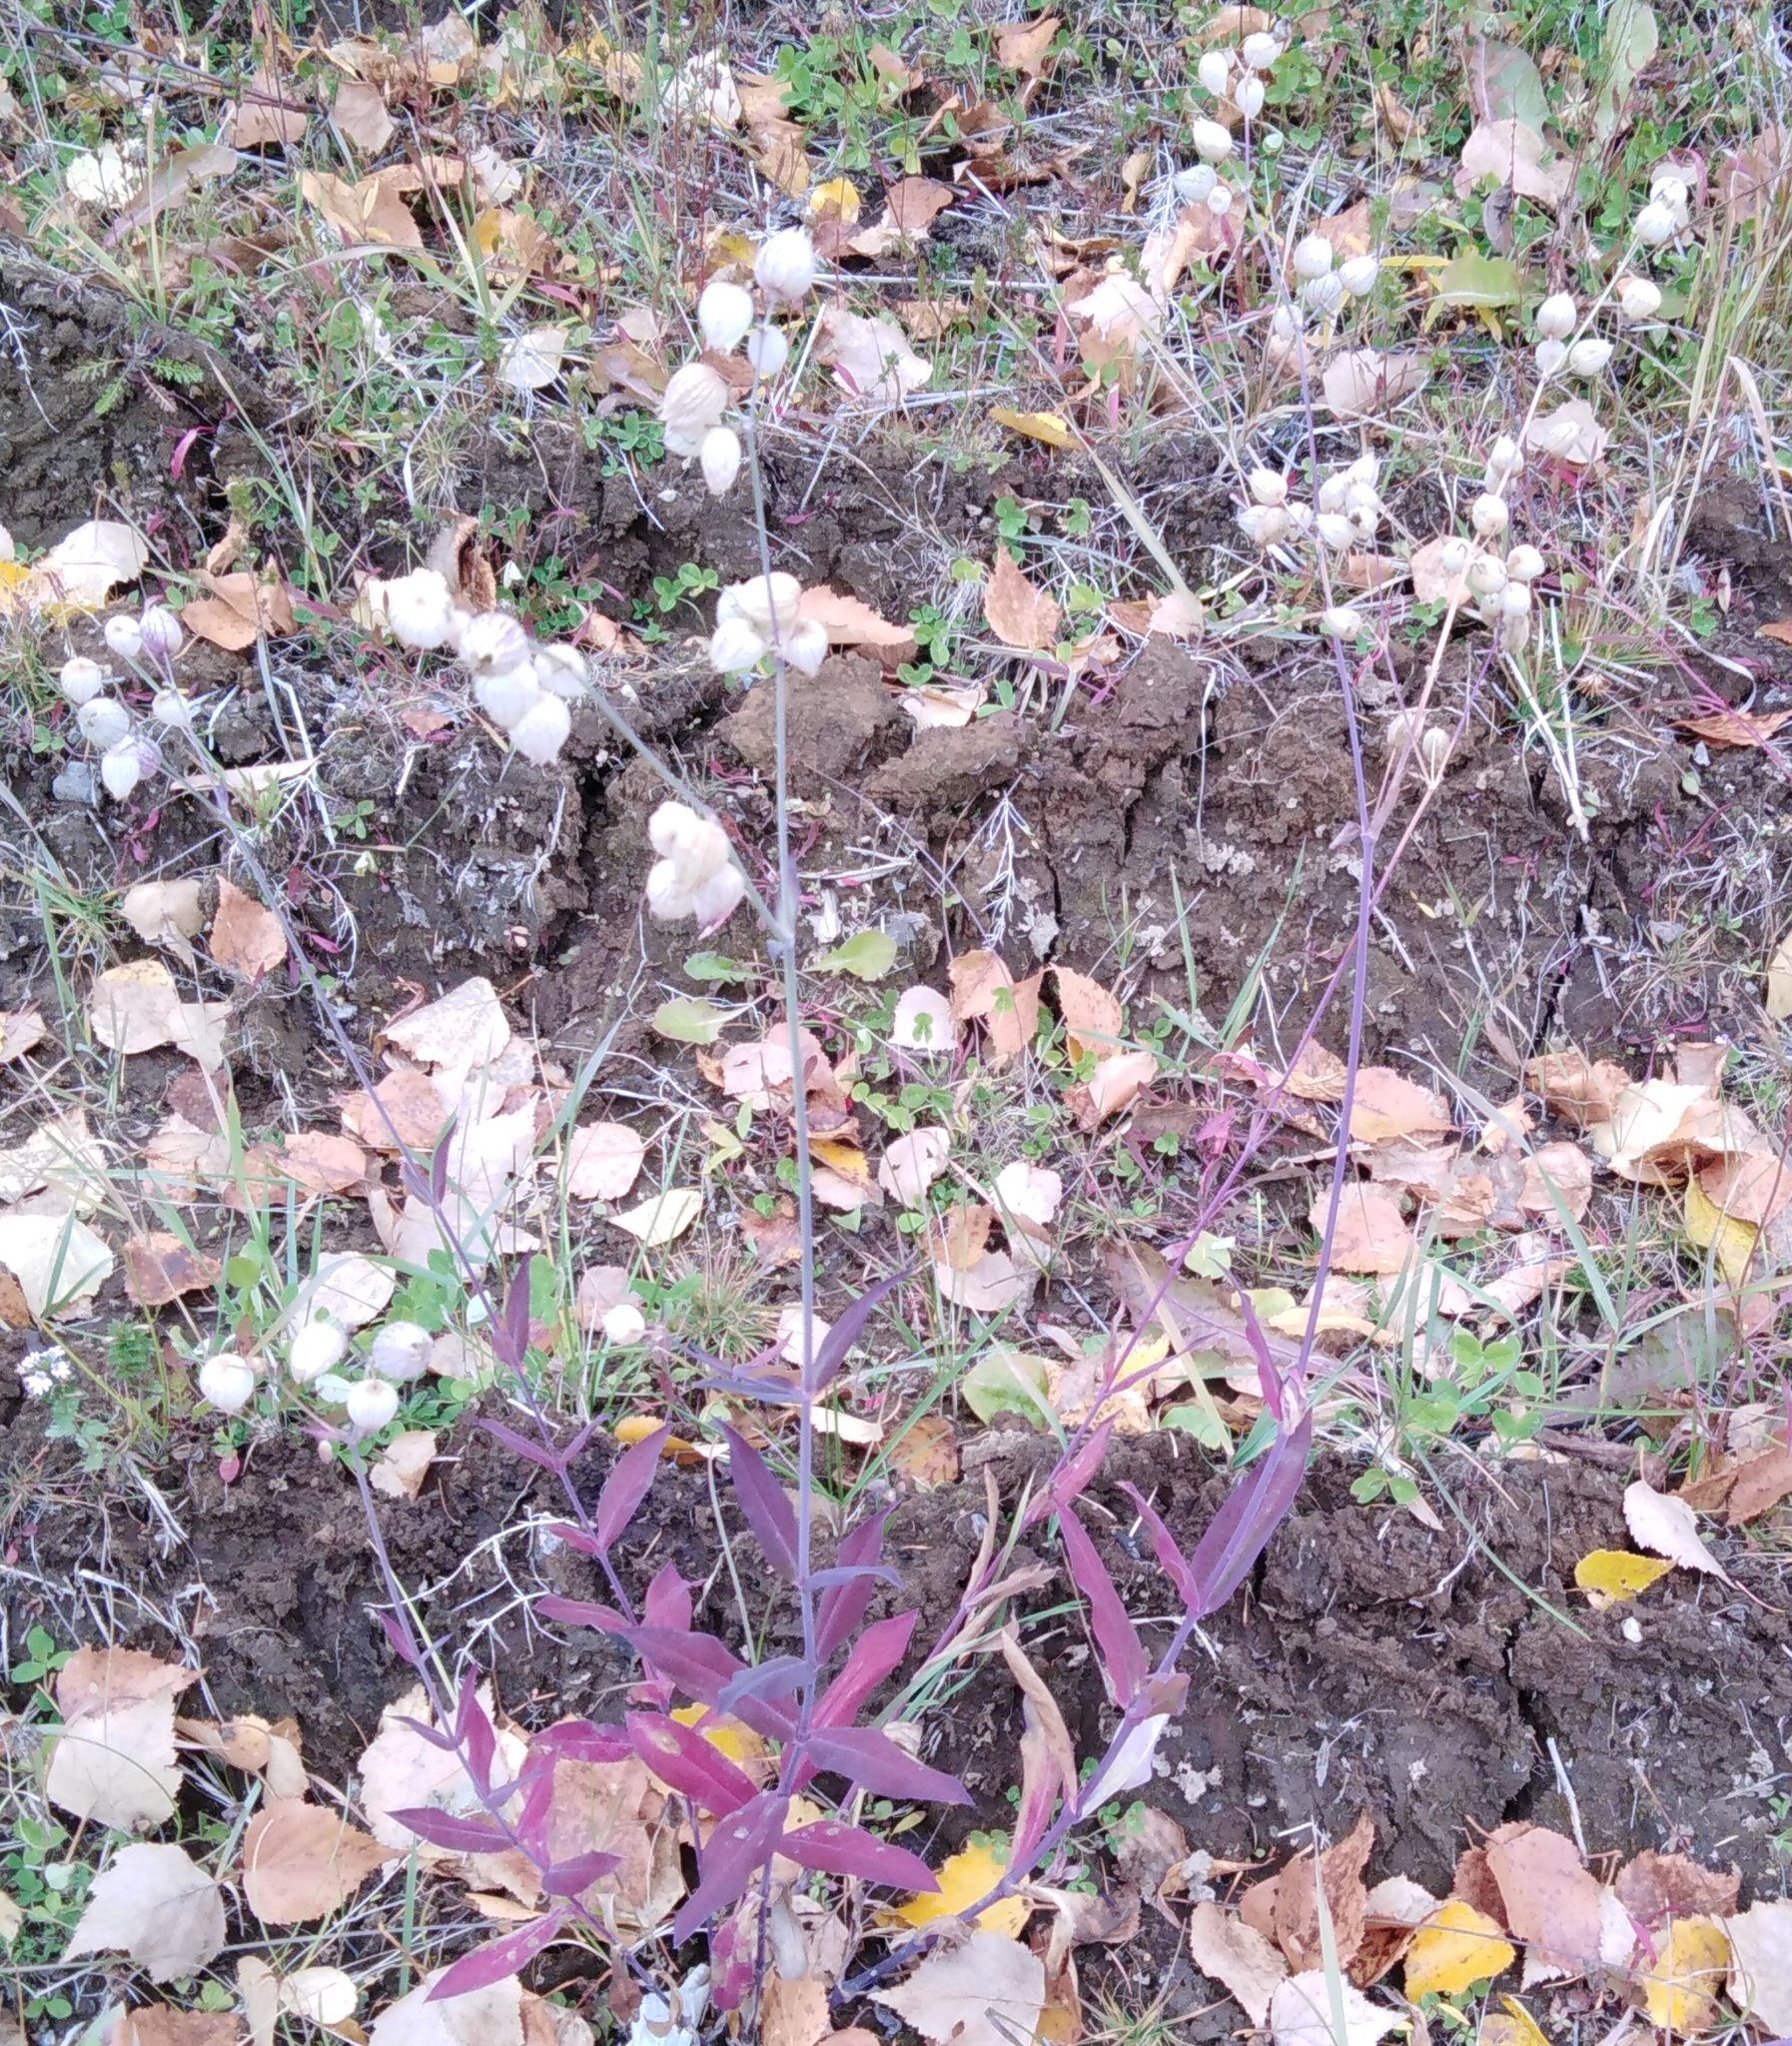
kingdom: Plantae
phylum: Tracheophyta
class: Magnoliopsida
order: Caryophyllales
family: Caryophyllaceae
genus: Silene
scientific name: Silene vulgaris
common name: Bladder campion
